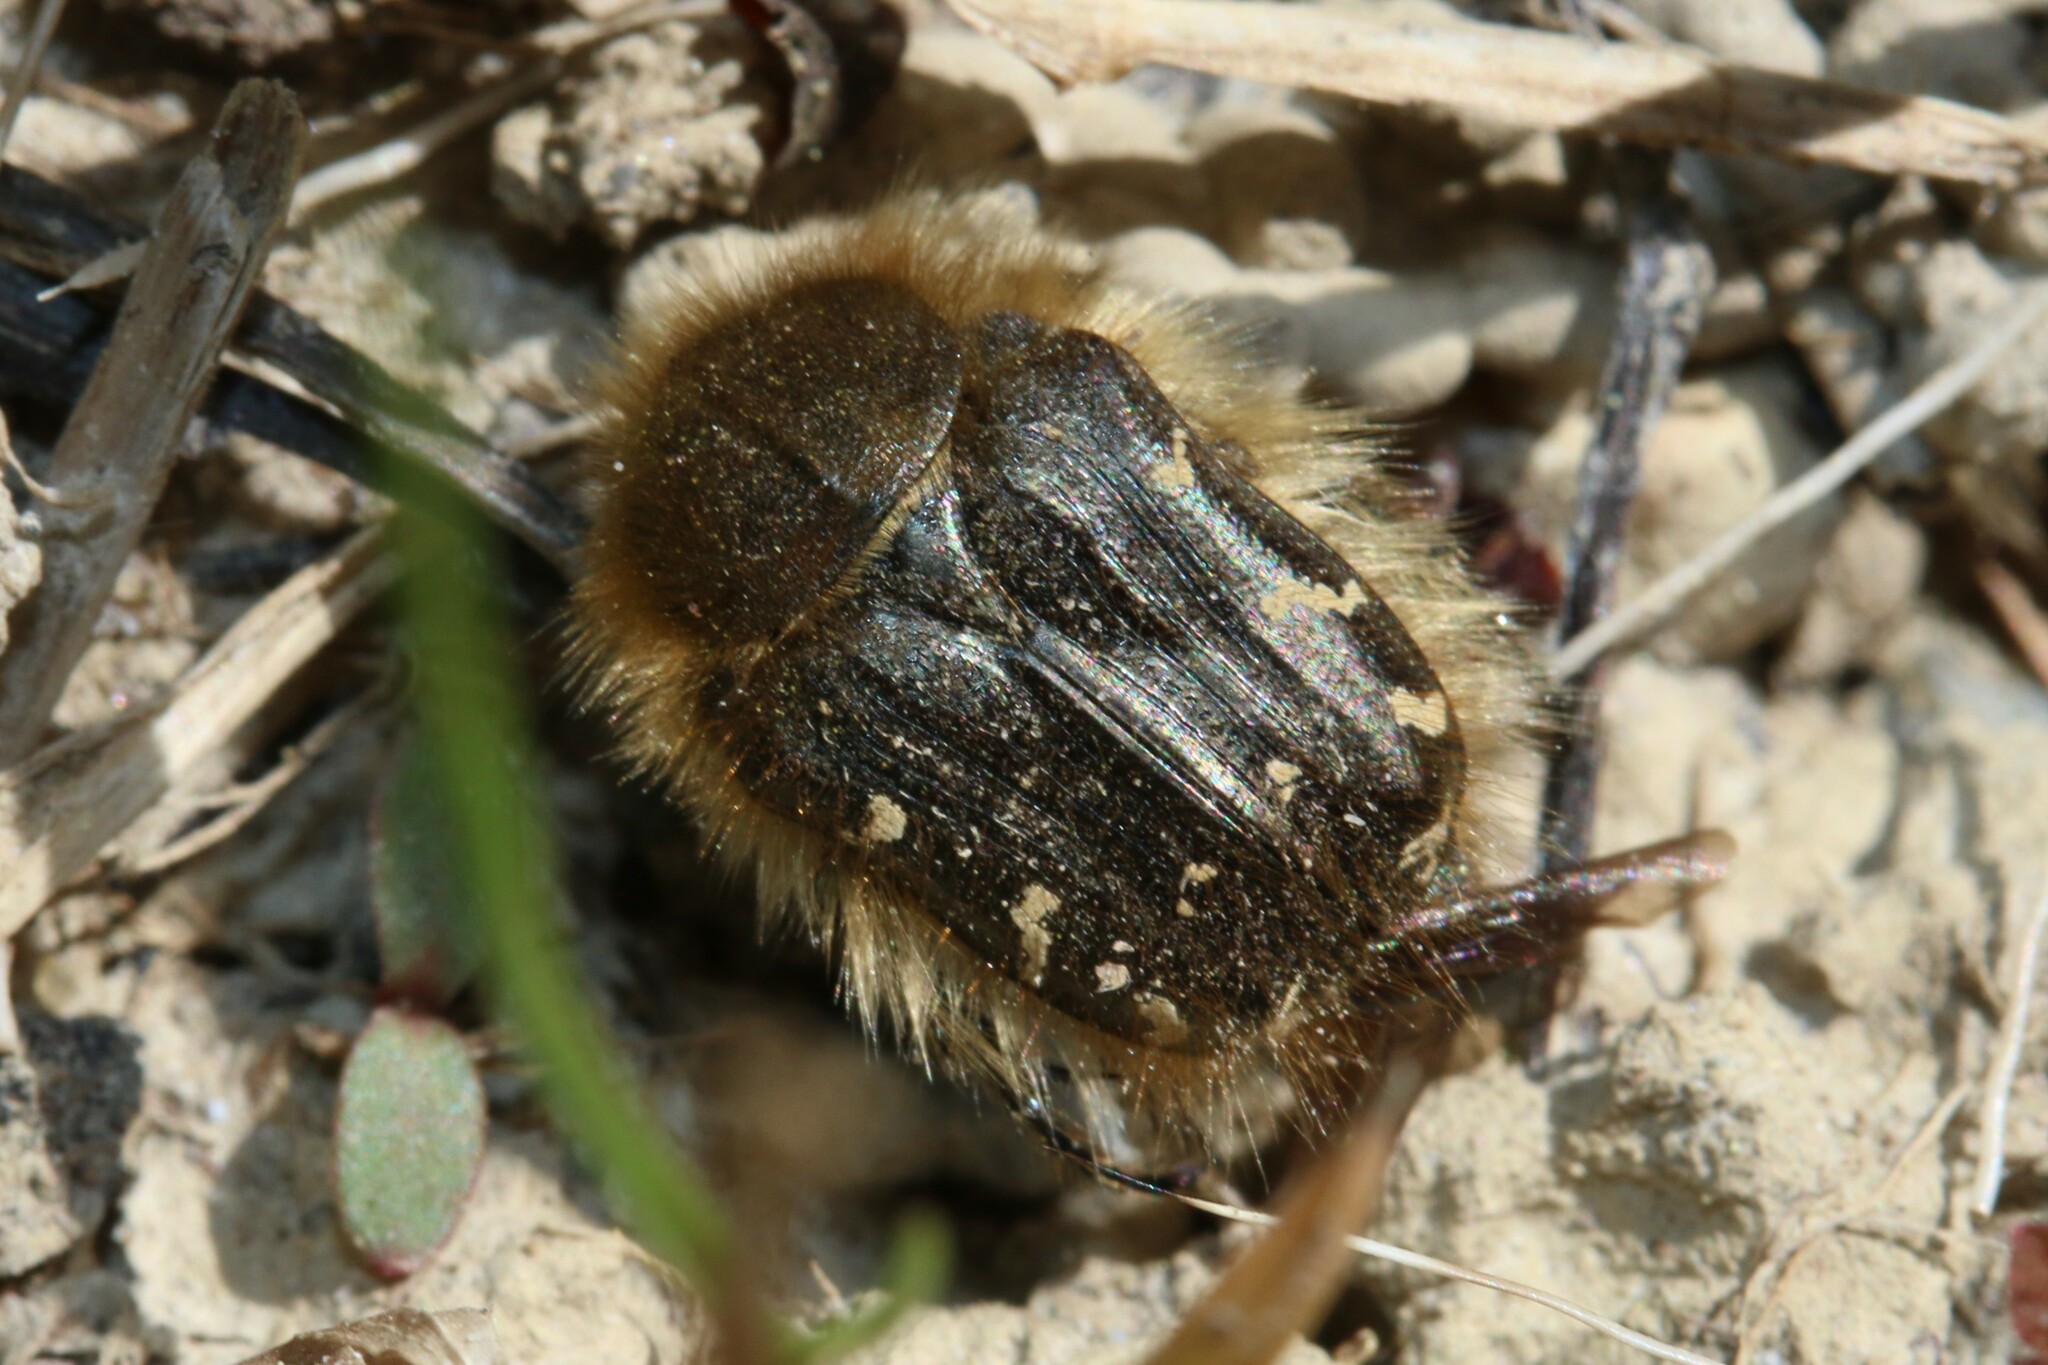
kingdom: Animalia
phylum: Arthropoda
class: Insecta
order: Coleoptera
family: Scarabaeidae
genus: Tropinota
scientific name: Tropinota hirta
